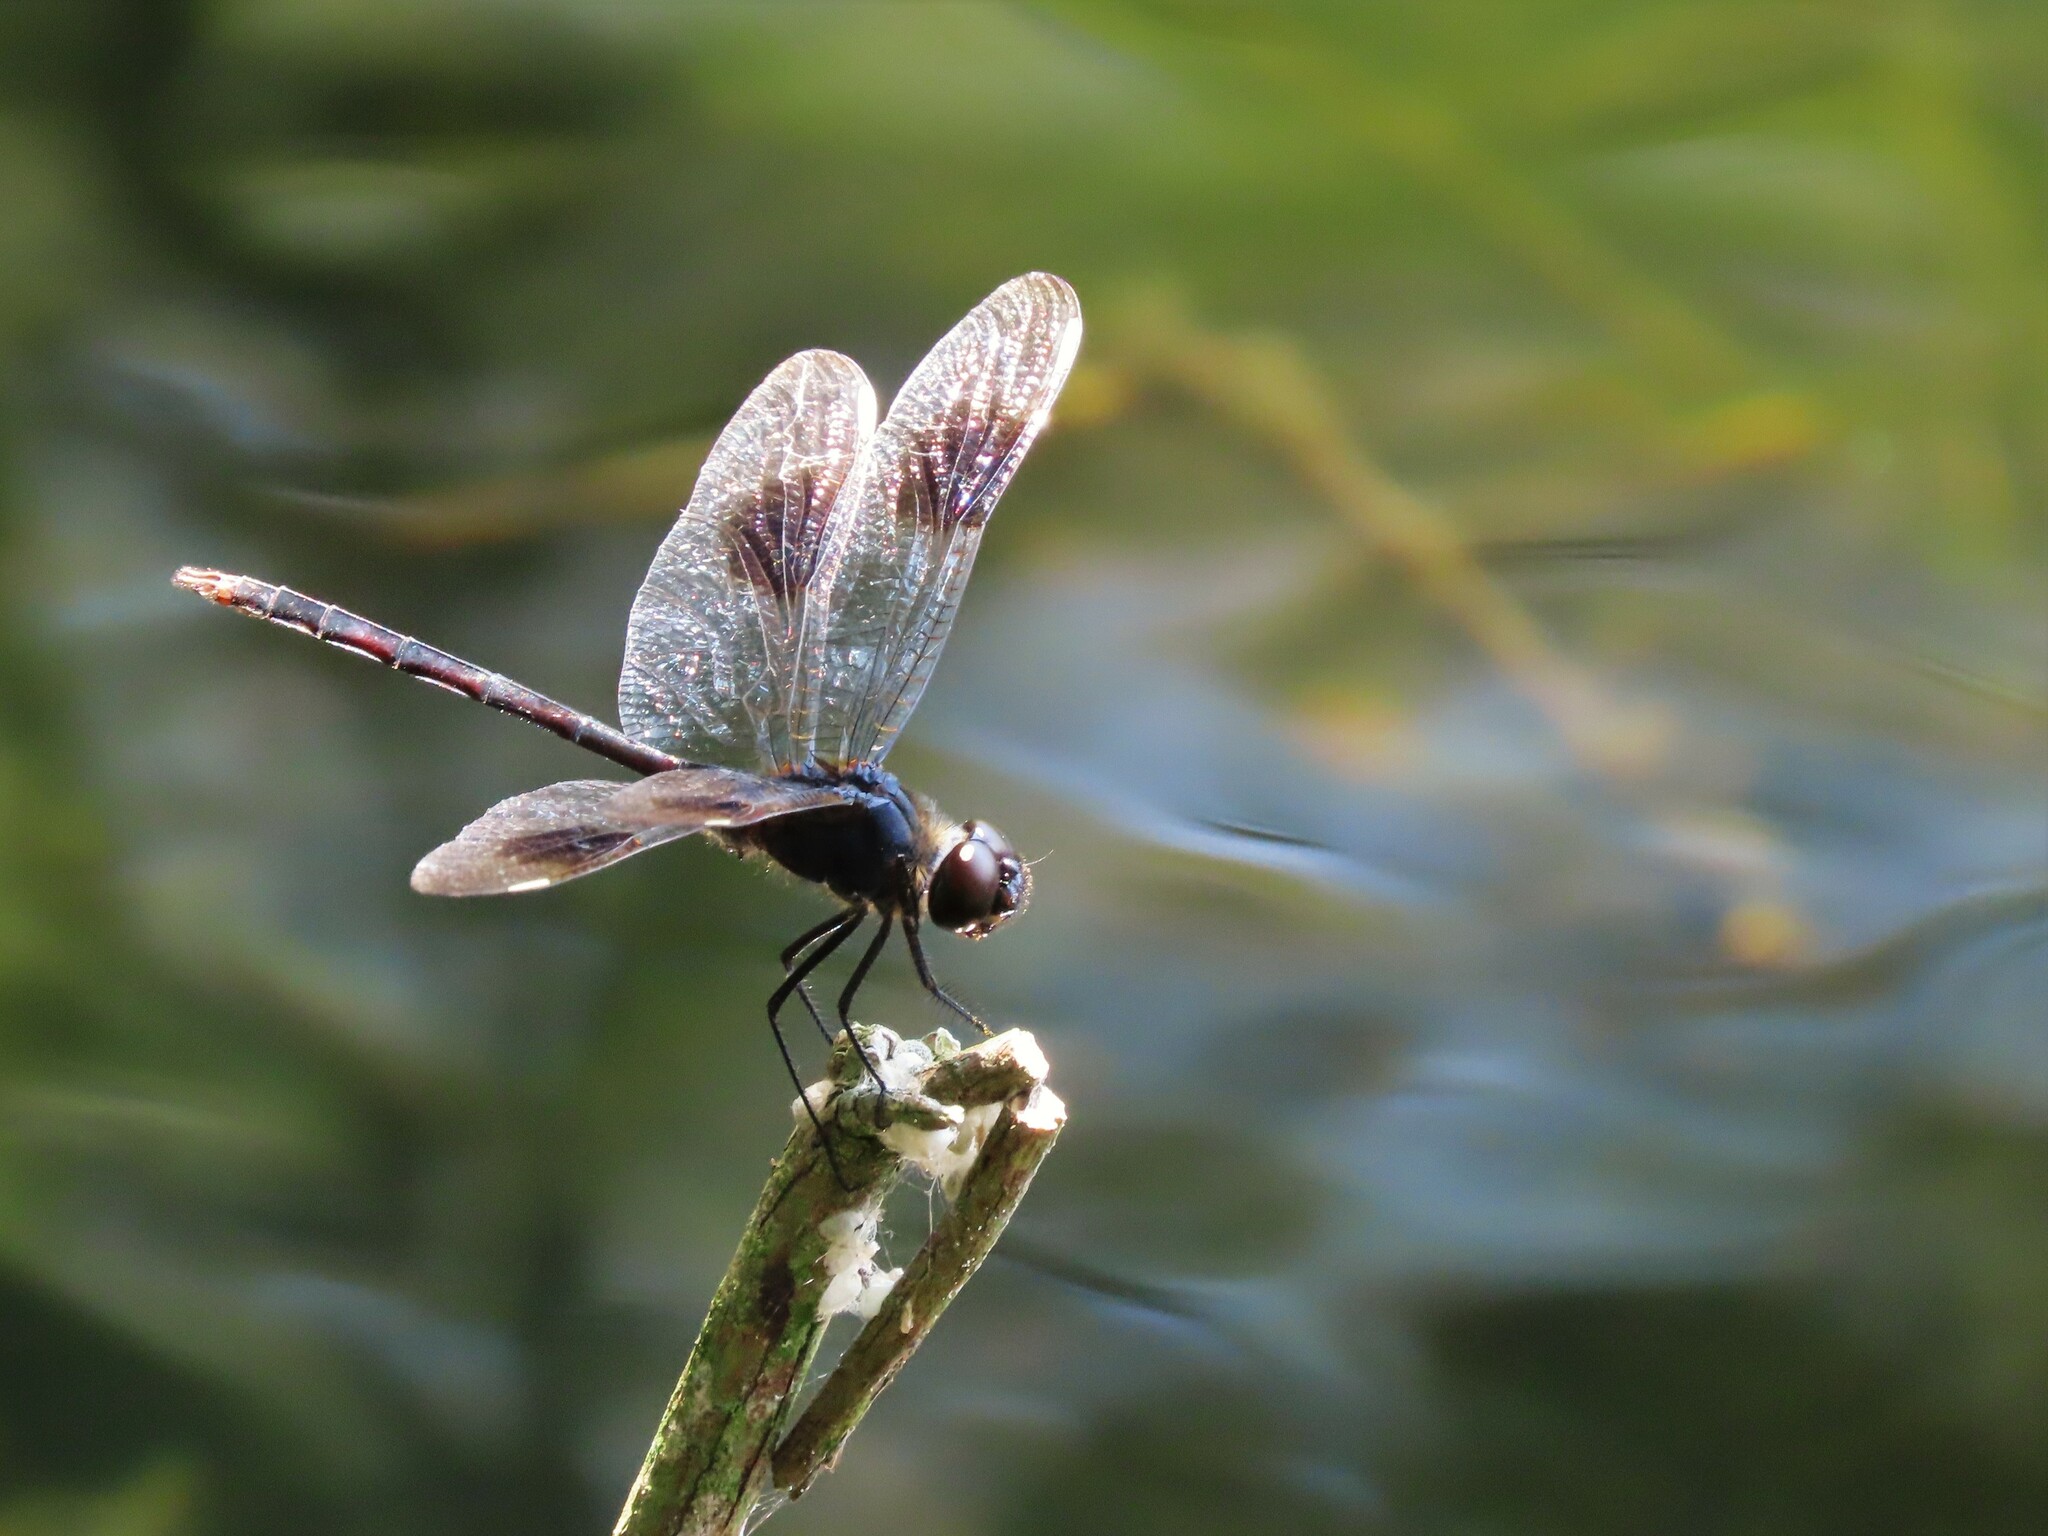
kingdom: Animalia
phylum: Arthropoda
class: Insecta
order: Odonata
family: Libellulidae
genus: Brachymesia
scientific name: Brachymesia gravida
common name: Four-spotted pennant
